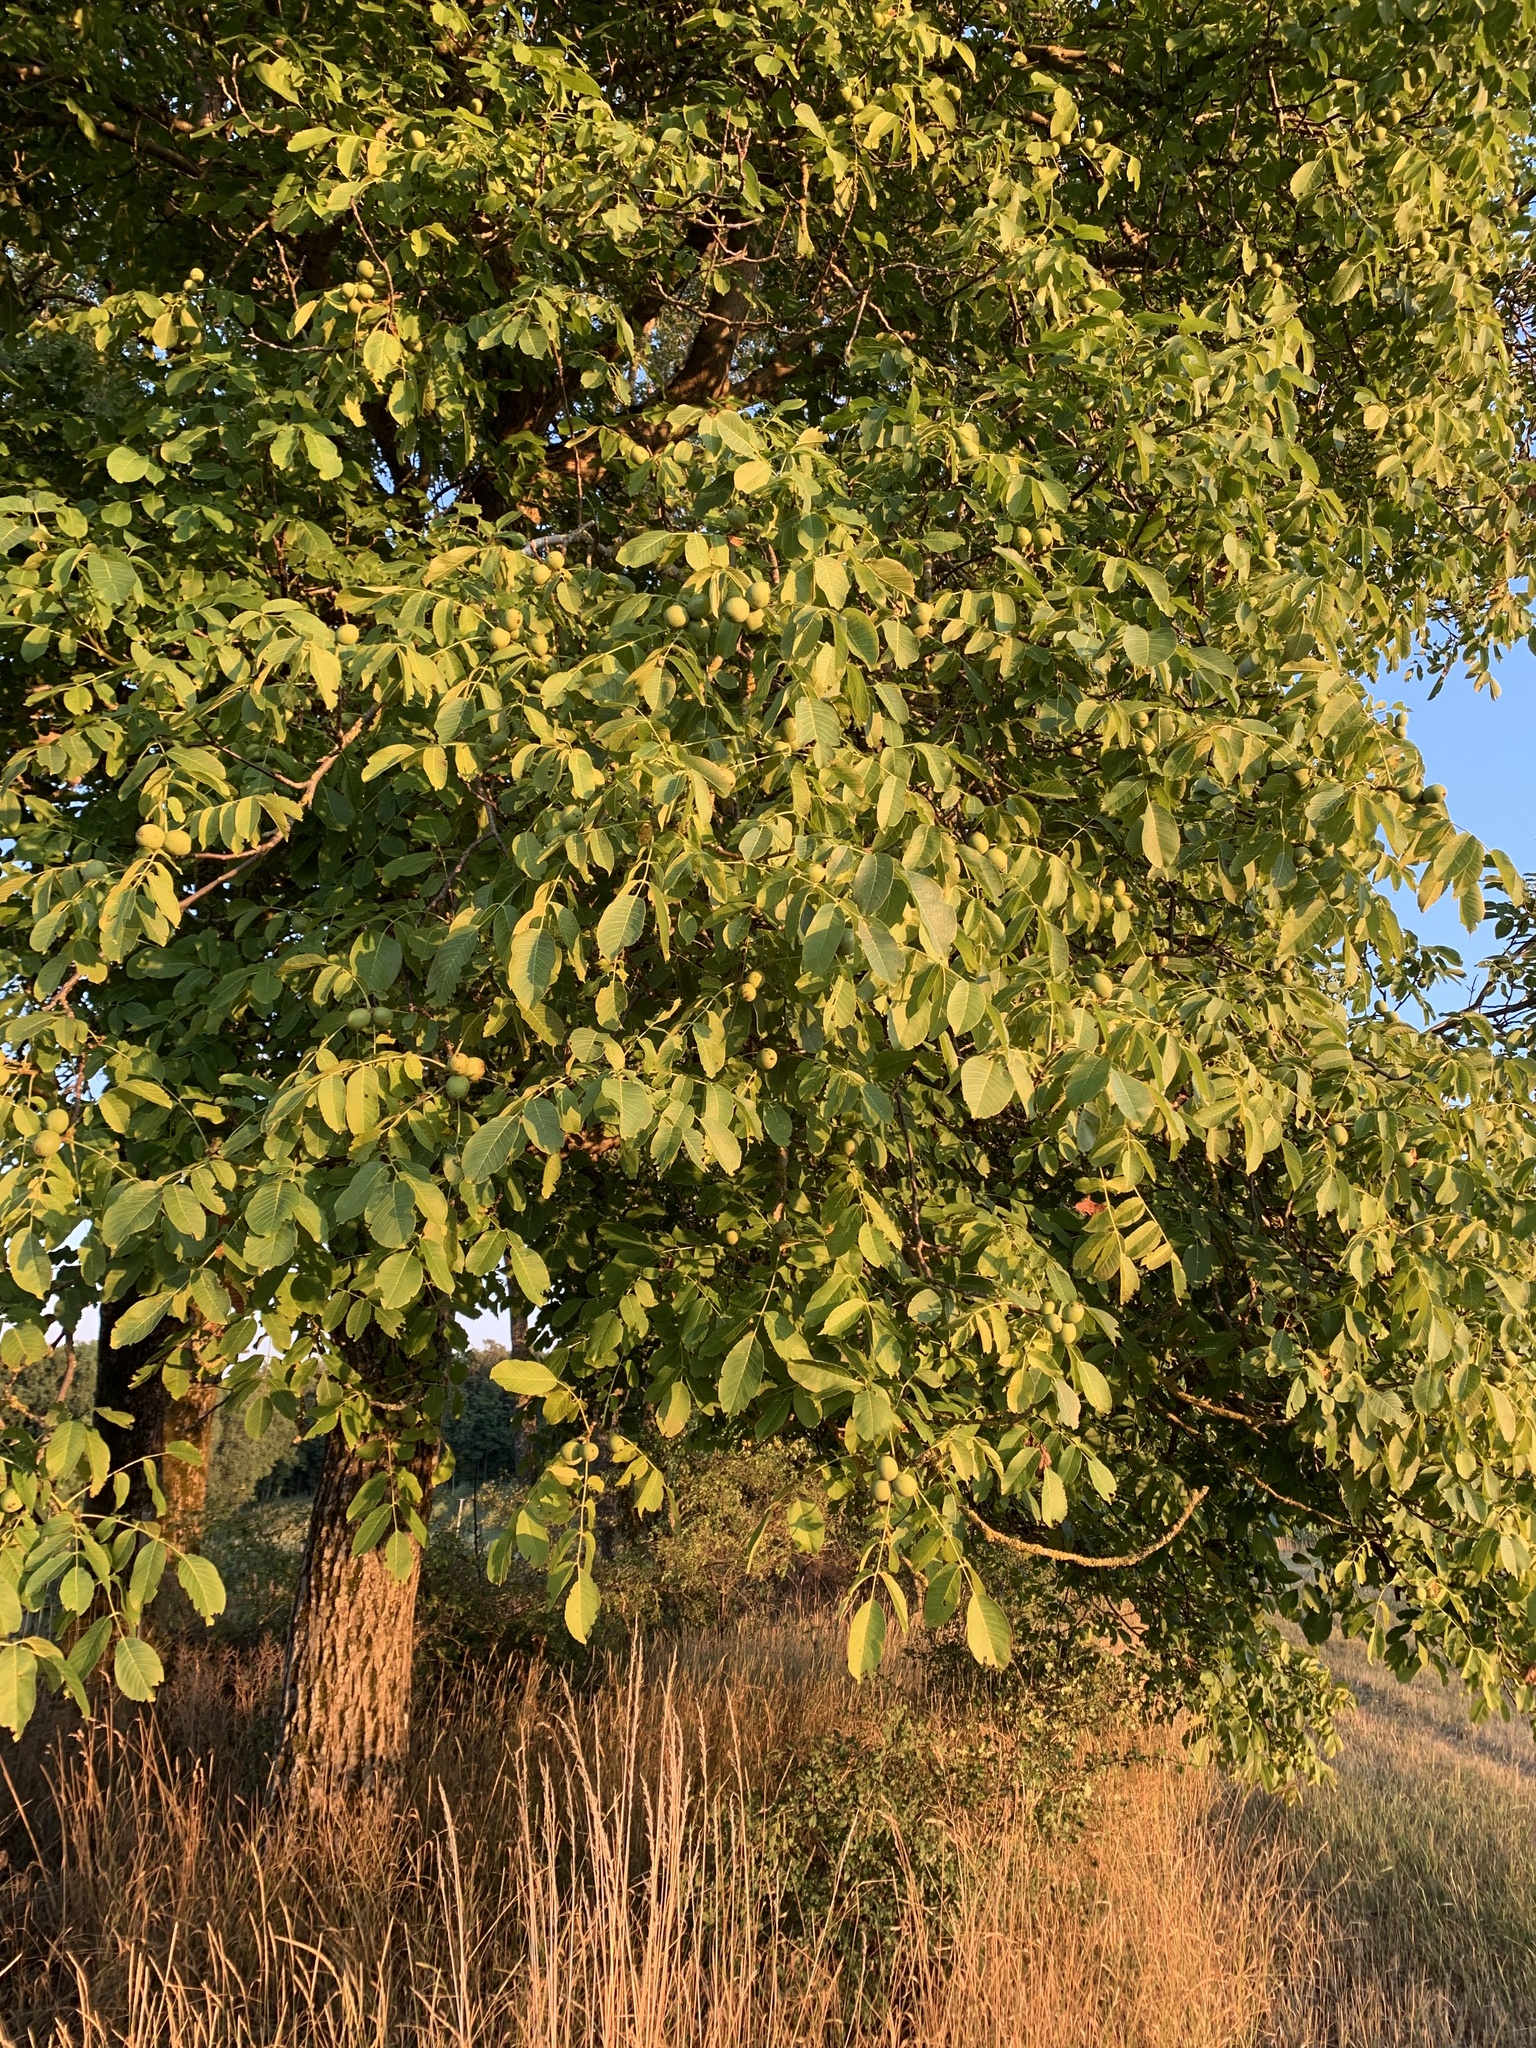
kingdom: Plantae
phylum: Tracheophyta
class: Magnoliopsida
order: Fagales
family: Juglandaceae
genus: Juglans
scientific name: Juglans regia
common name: Walnut
